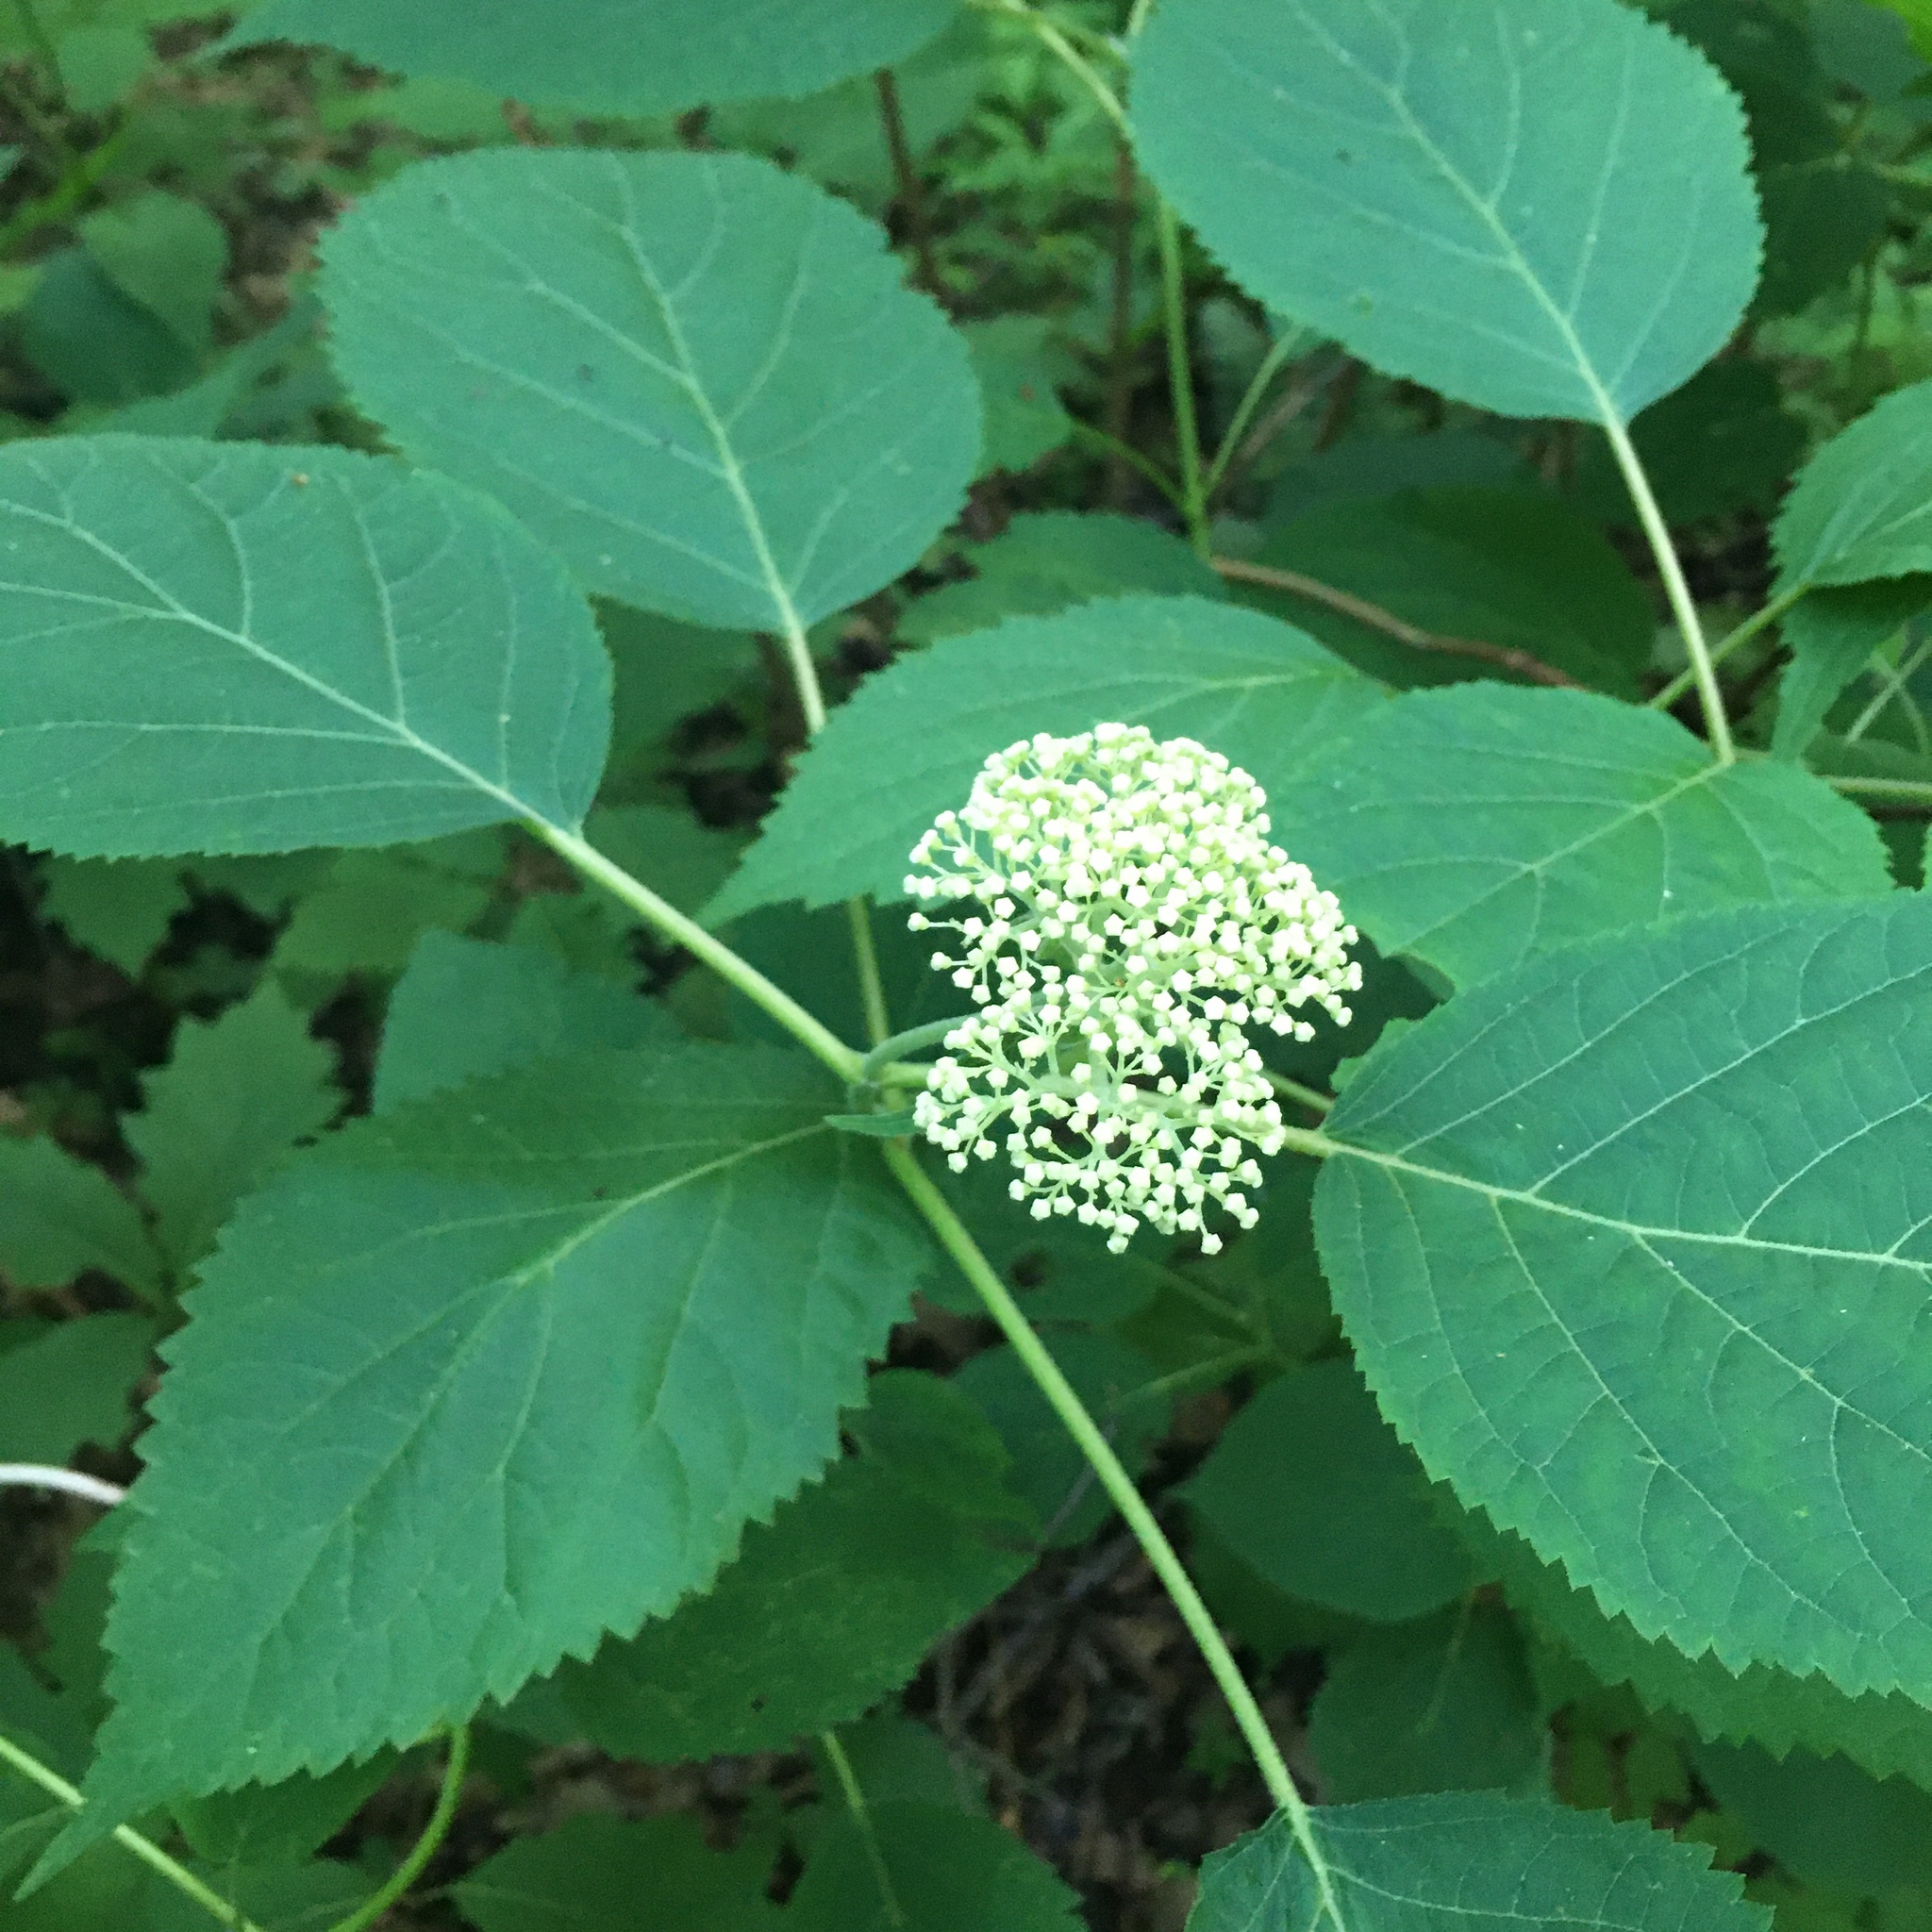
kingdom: Plantae
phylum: Tracheophyta
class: Magnoliopsida
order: Cornales
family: Hydrangeaceae
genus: Hydrangea
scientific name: Hydrangea arborescens
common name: Sevenbark
